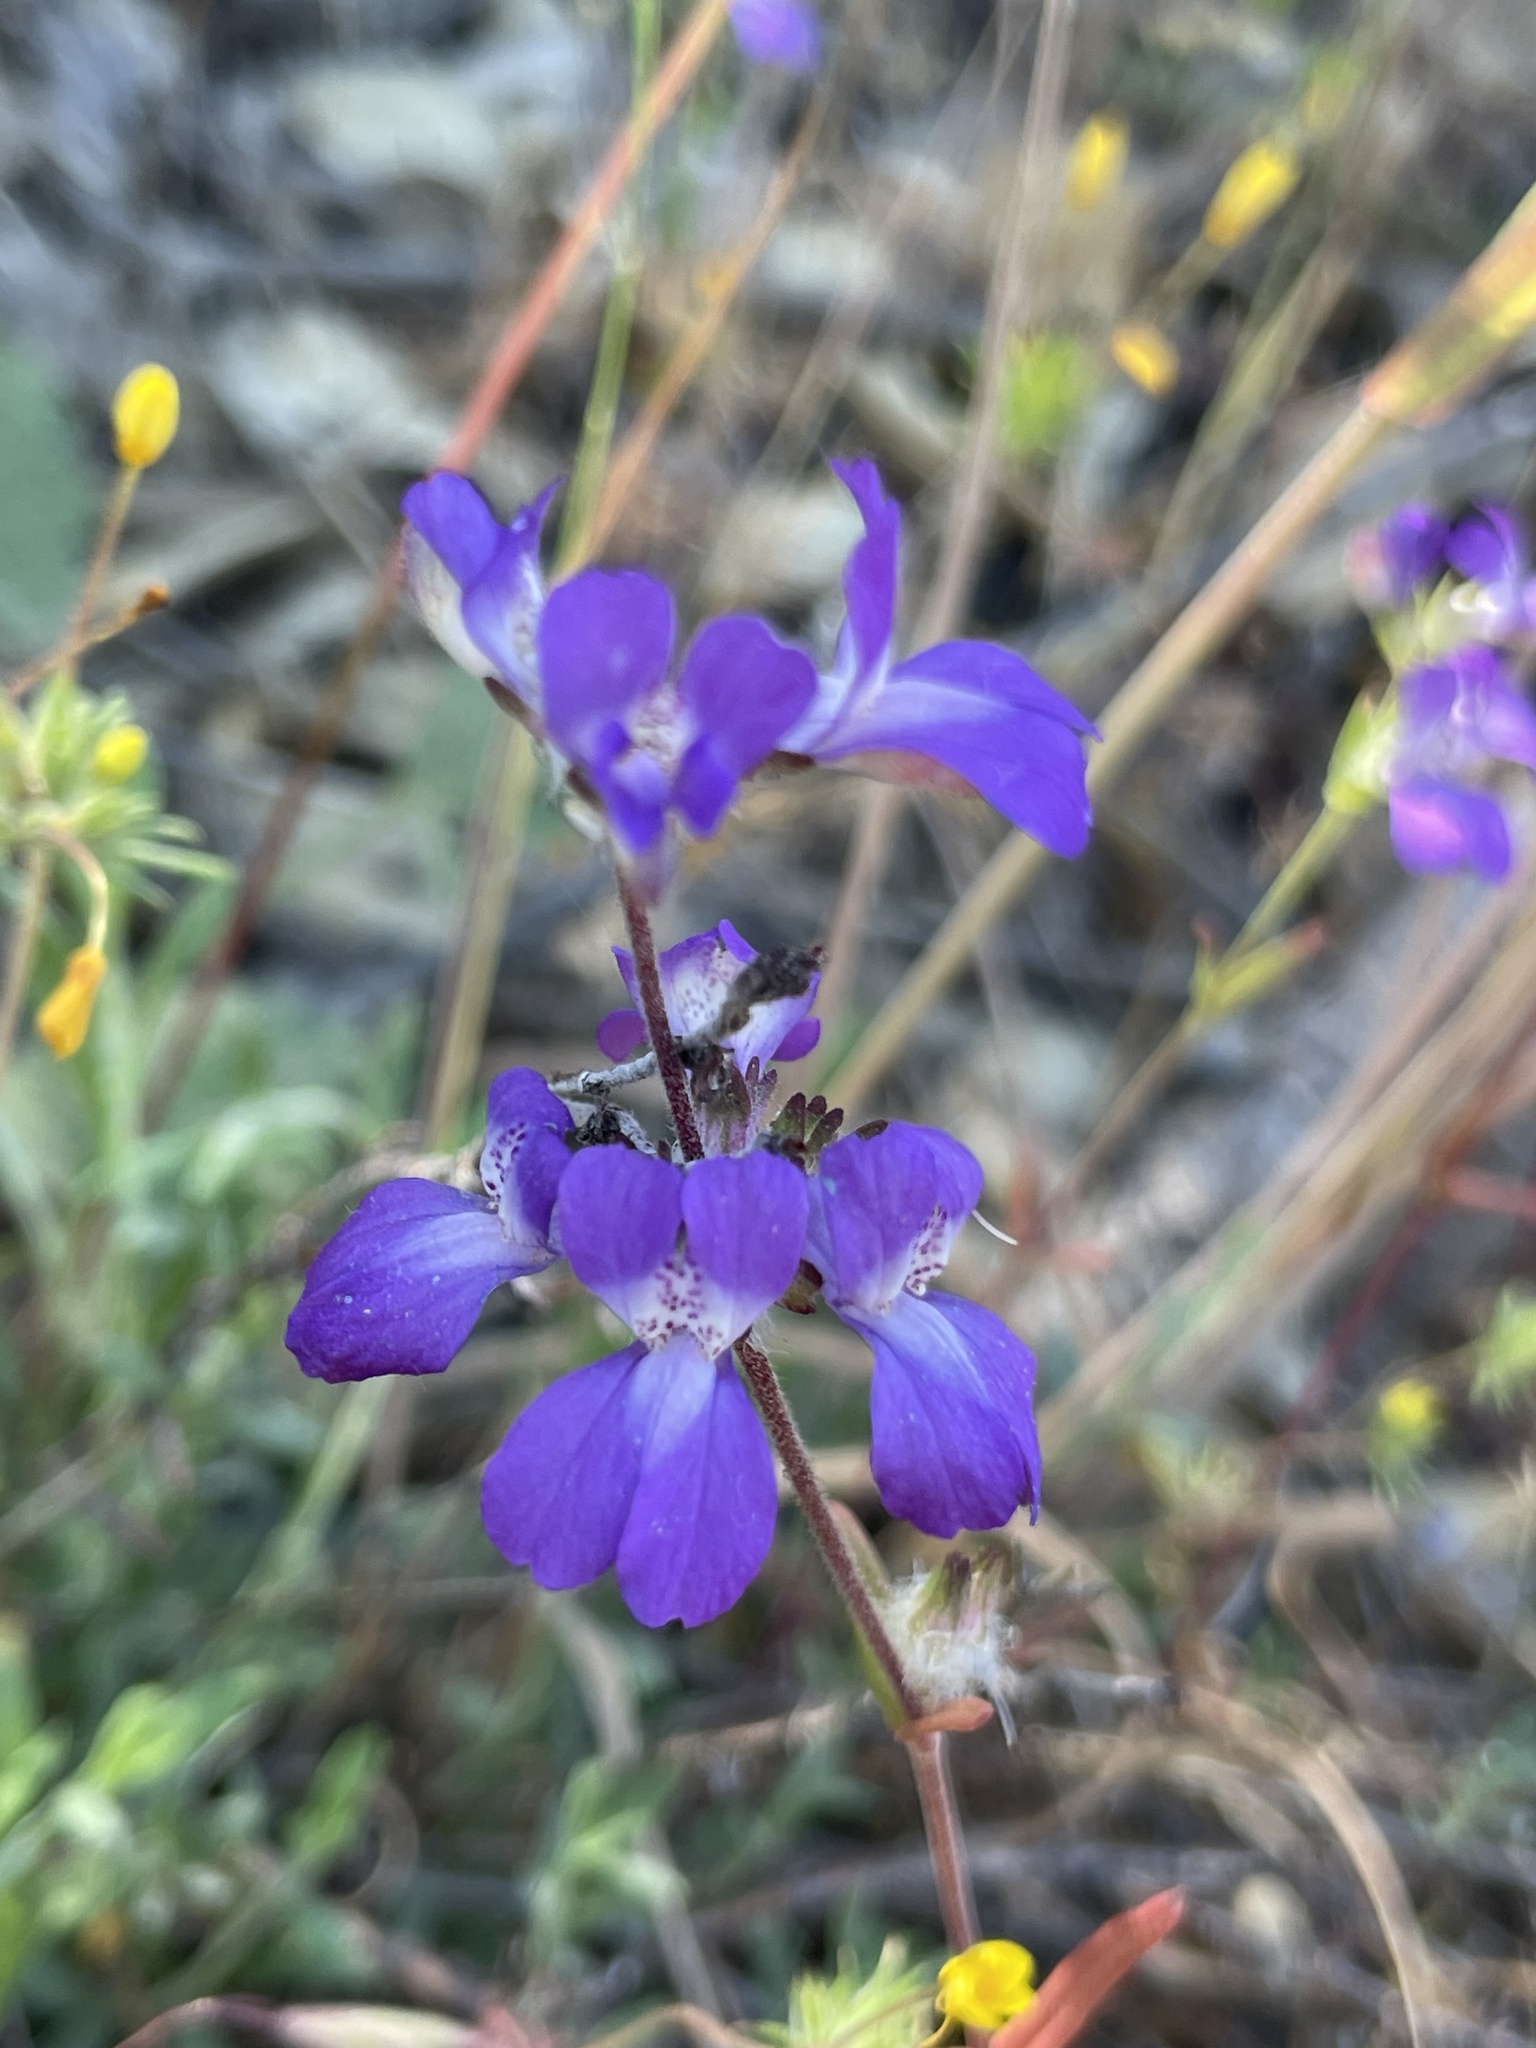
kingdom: Plantae
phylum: Tracheophyta
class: Magnoliopsida
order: Lamiales
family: Plantaginaceae
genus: Collinsia
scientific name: Collinsia heterophylla
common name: Chinese-houses
